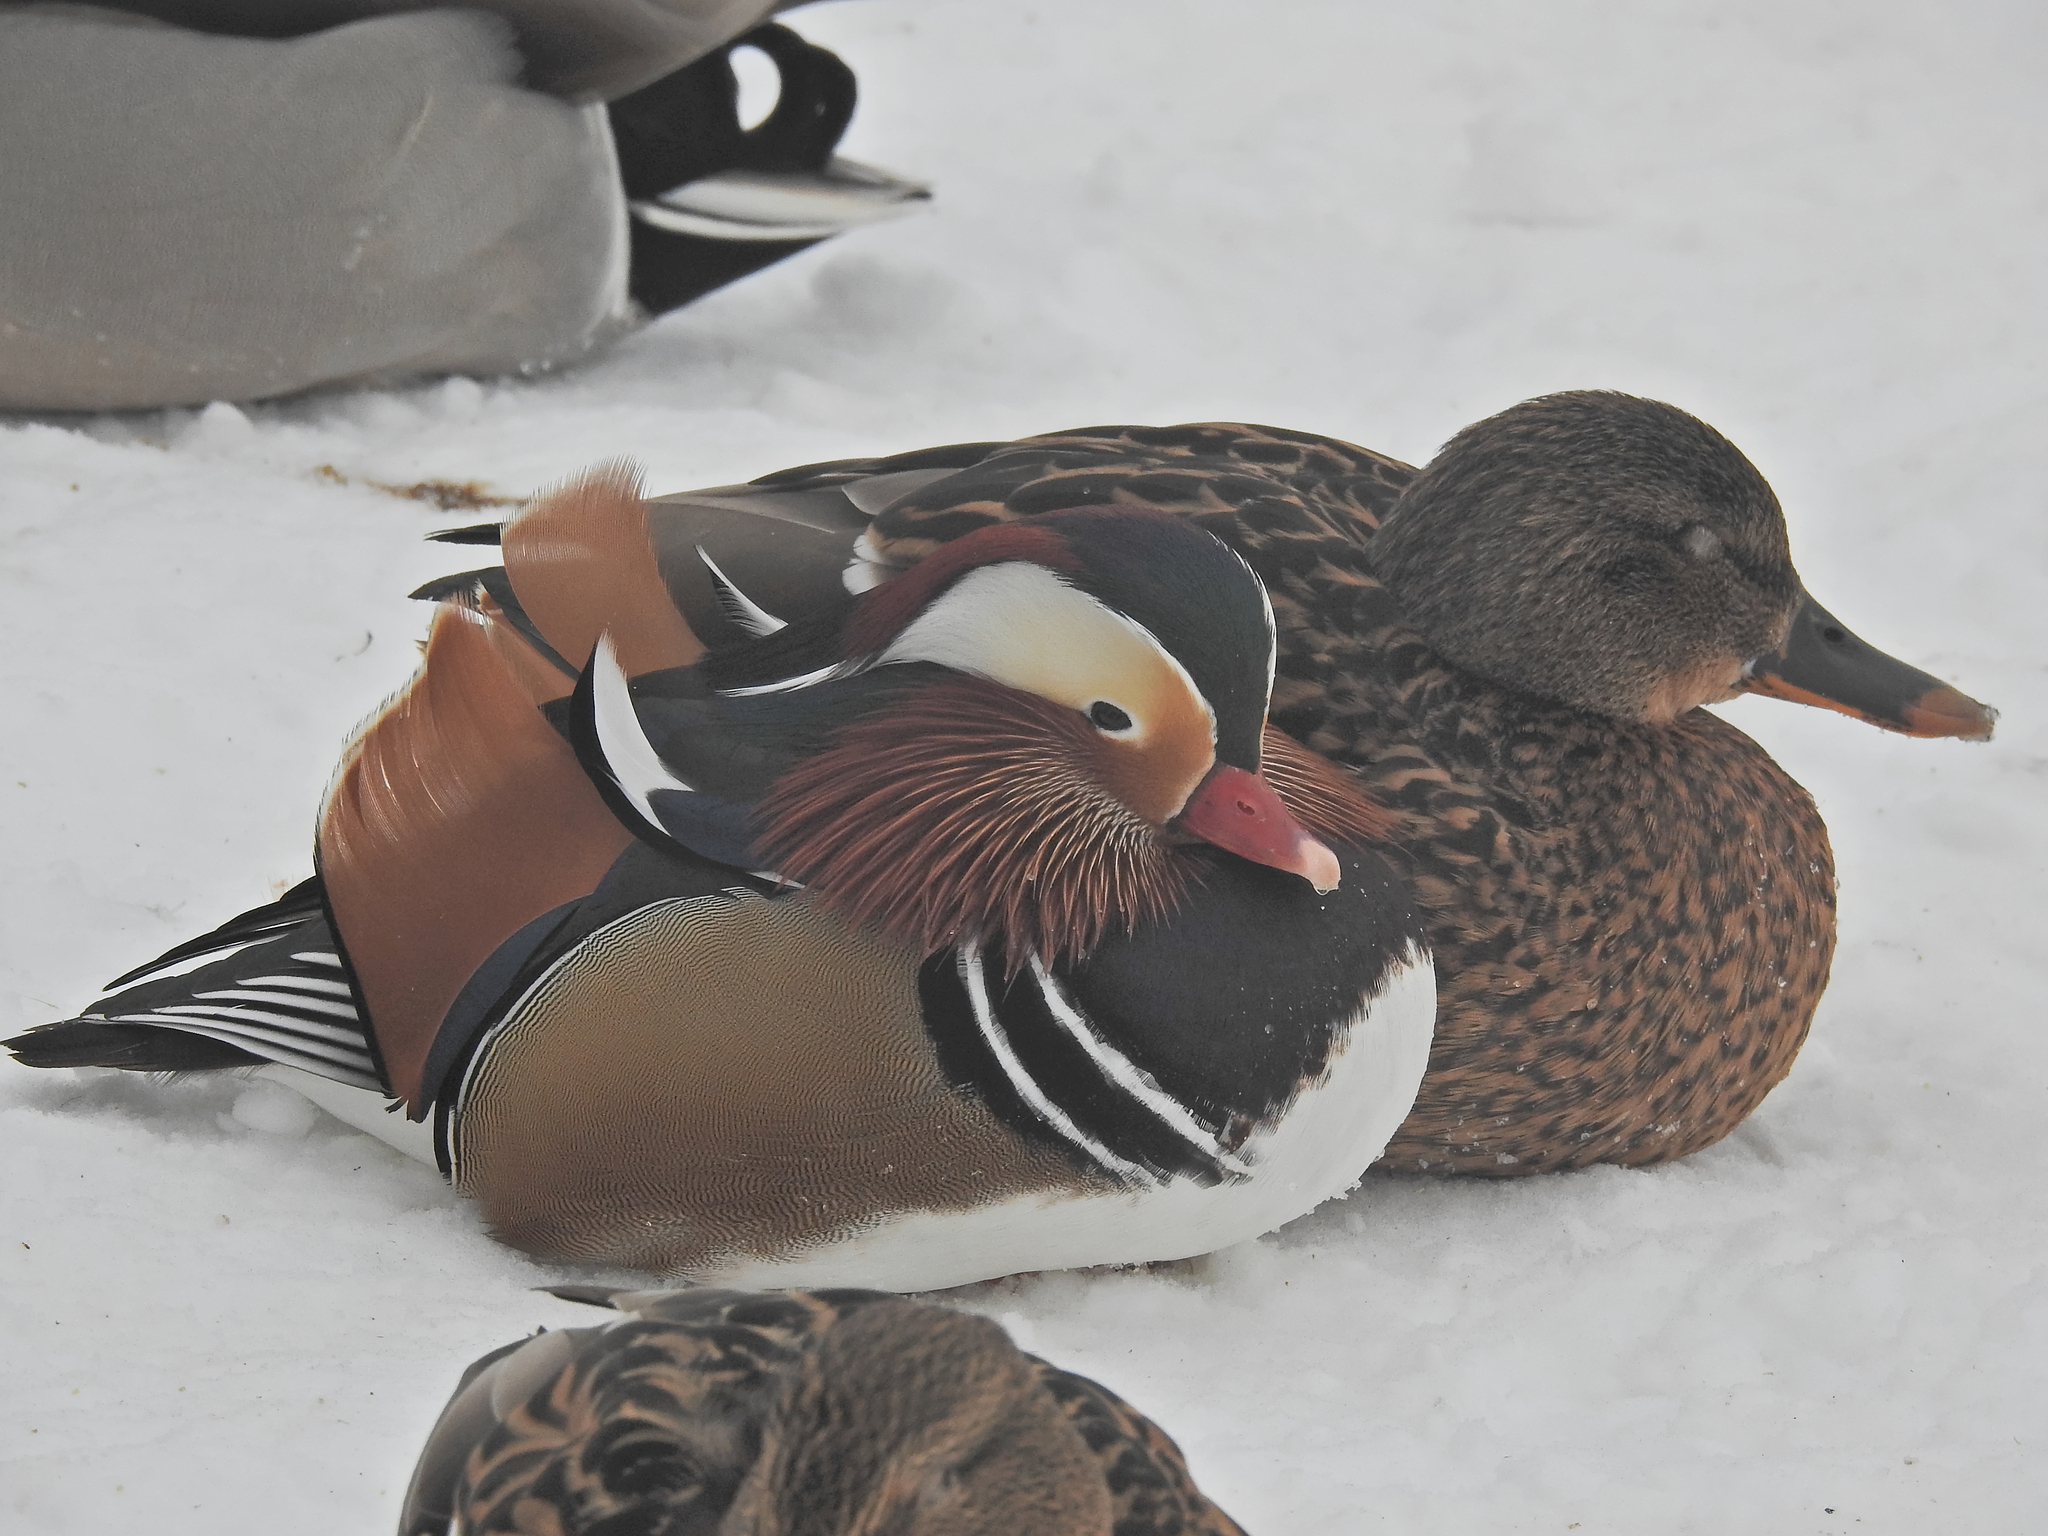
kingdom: Animalia
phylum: Chordata
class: Aves
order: Anseriformes
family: Anatidae
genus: Anas
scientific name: Anas platyrhynchos
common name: Mallard
